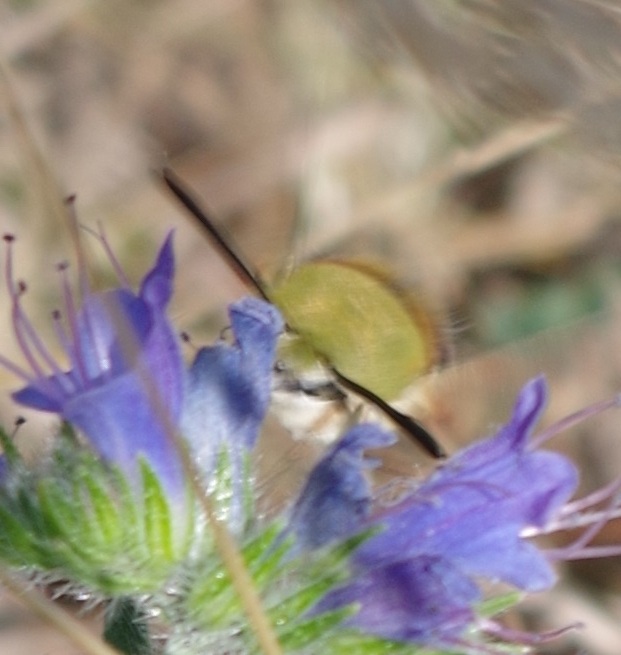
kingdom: Animalia
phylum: Arthropoda
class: Insecta
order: Lepidoptera
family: Sphingidae
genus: Hemaris
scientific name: Hemaris fuciformis
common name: Broad-bordered bee hawk-moth
